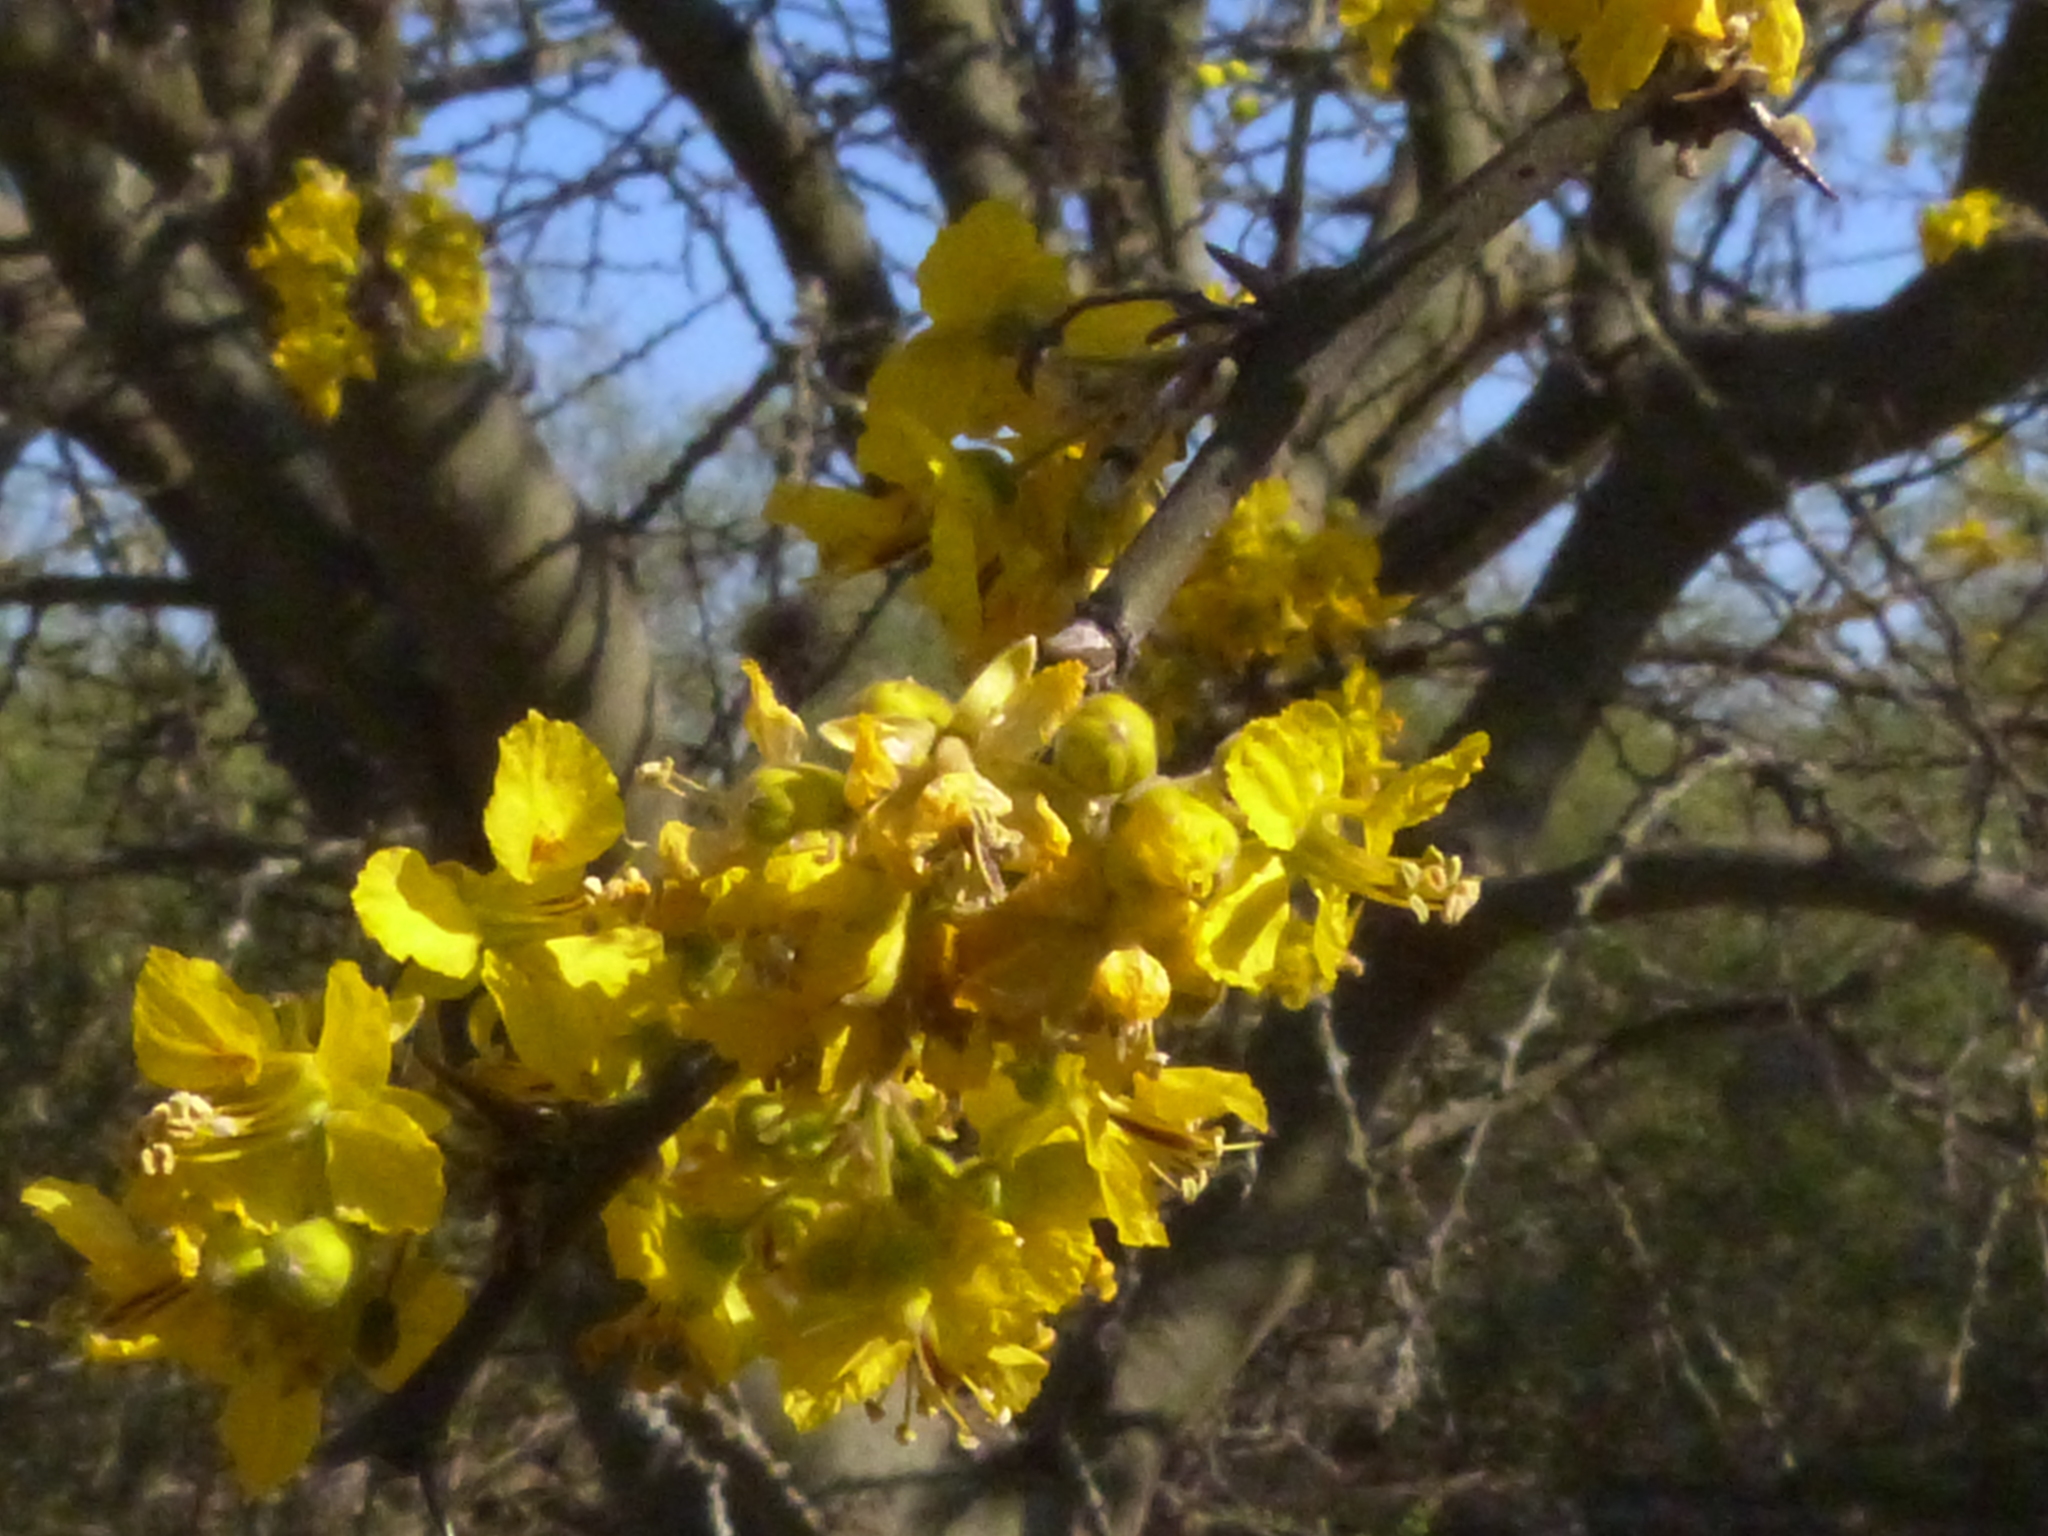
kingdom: Plantae
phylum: Tracheophyta
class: Magnoliopsida
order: Fabales
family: Fabaceae
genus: Parkinsonia
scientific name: Parkinsonia praecox
